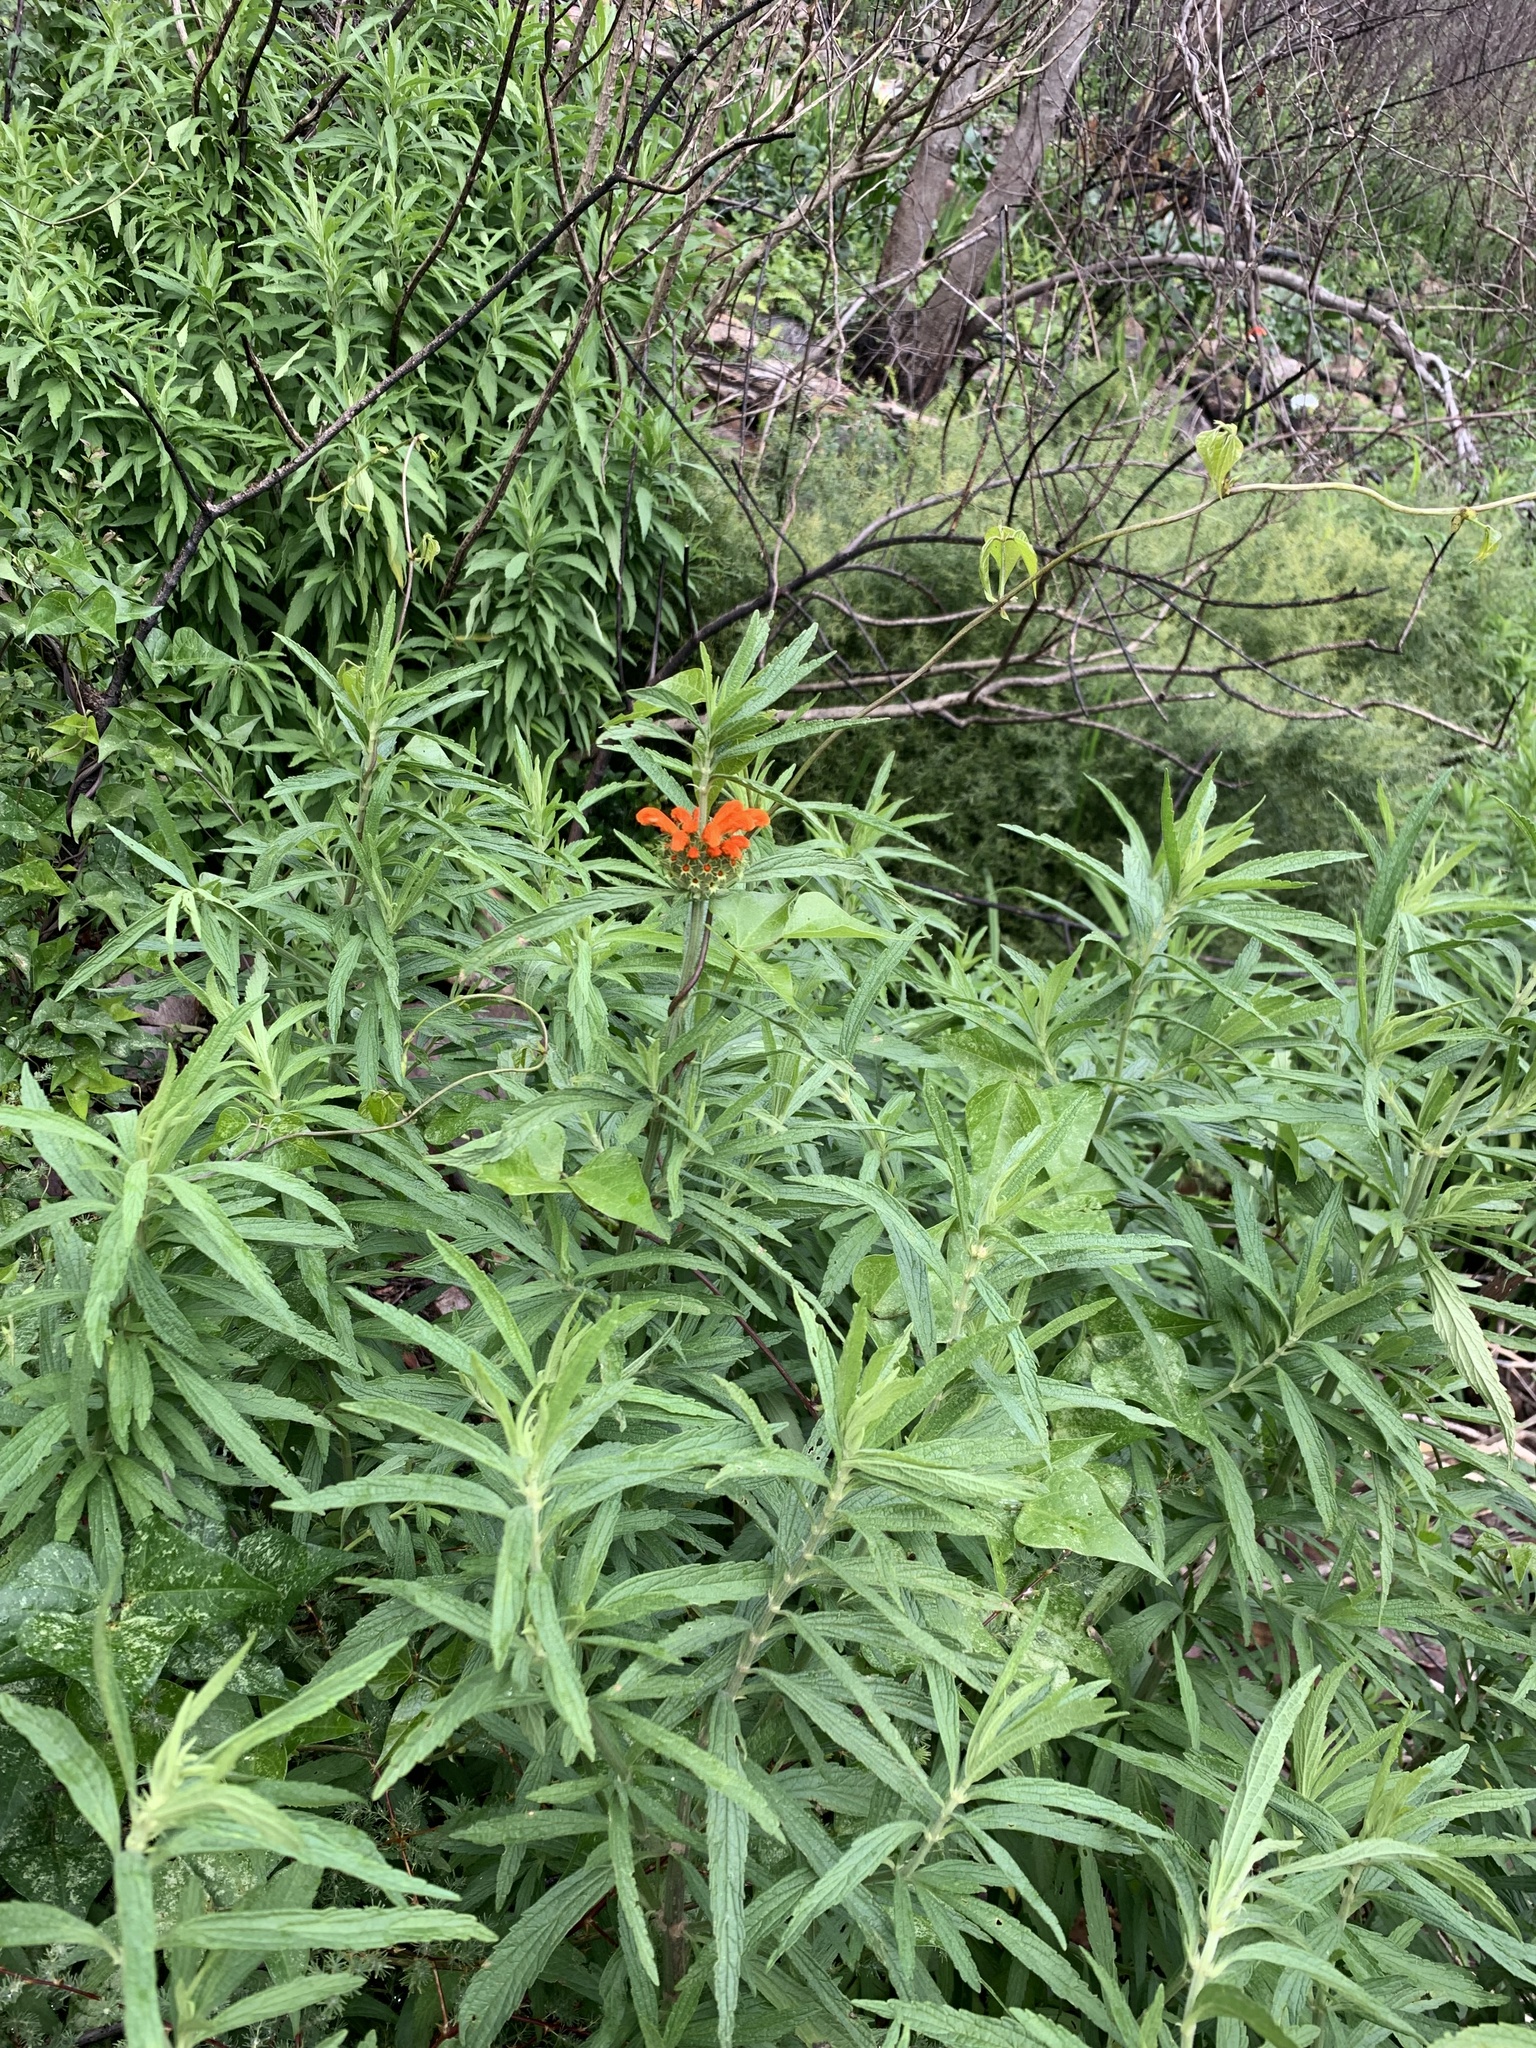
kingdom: Plantae
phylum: Tracheophyta
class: Magnoliopsida
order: Lamiales
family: Lamiaceae
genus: Leonotis
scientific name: Leonotis leonurus
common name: Lion's ear
